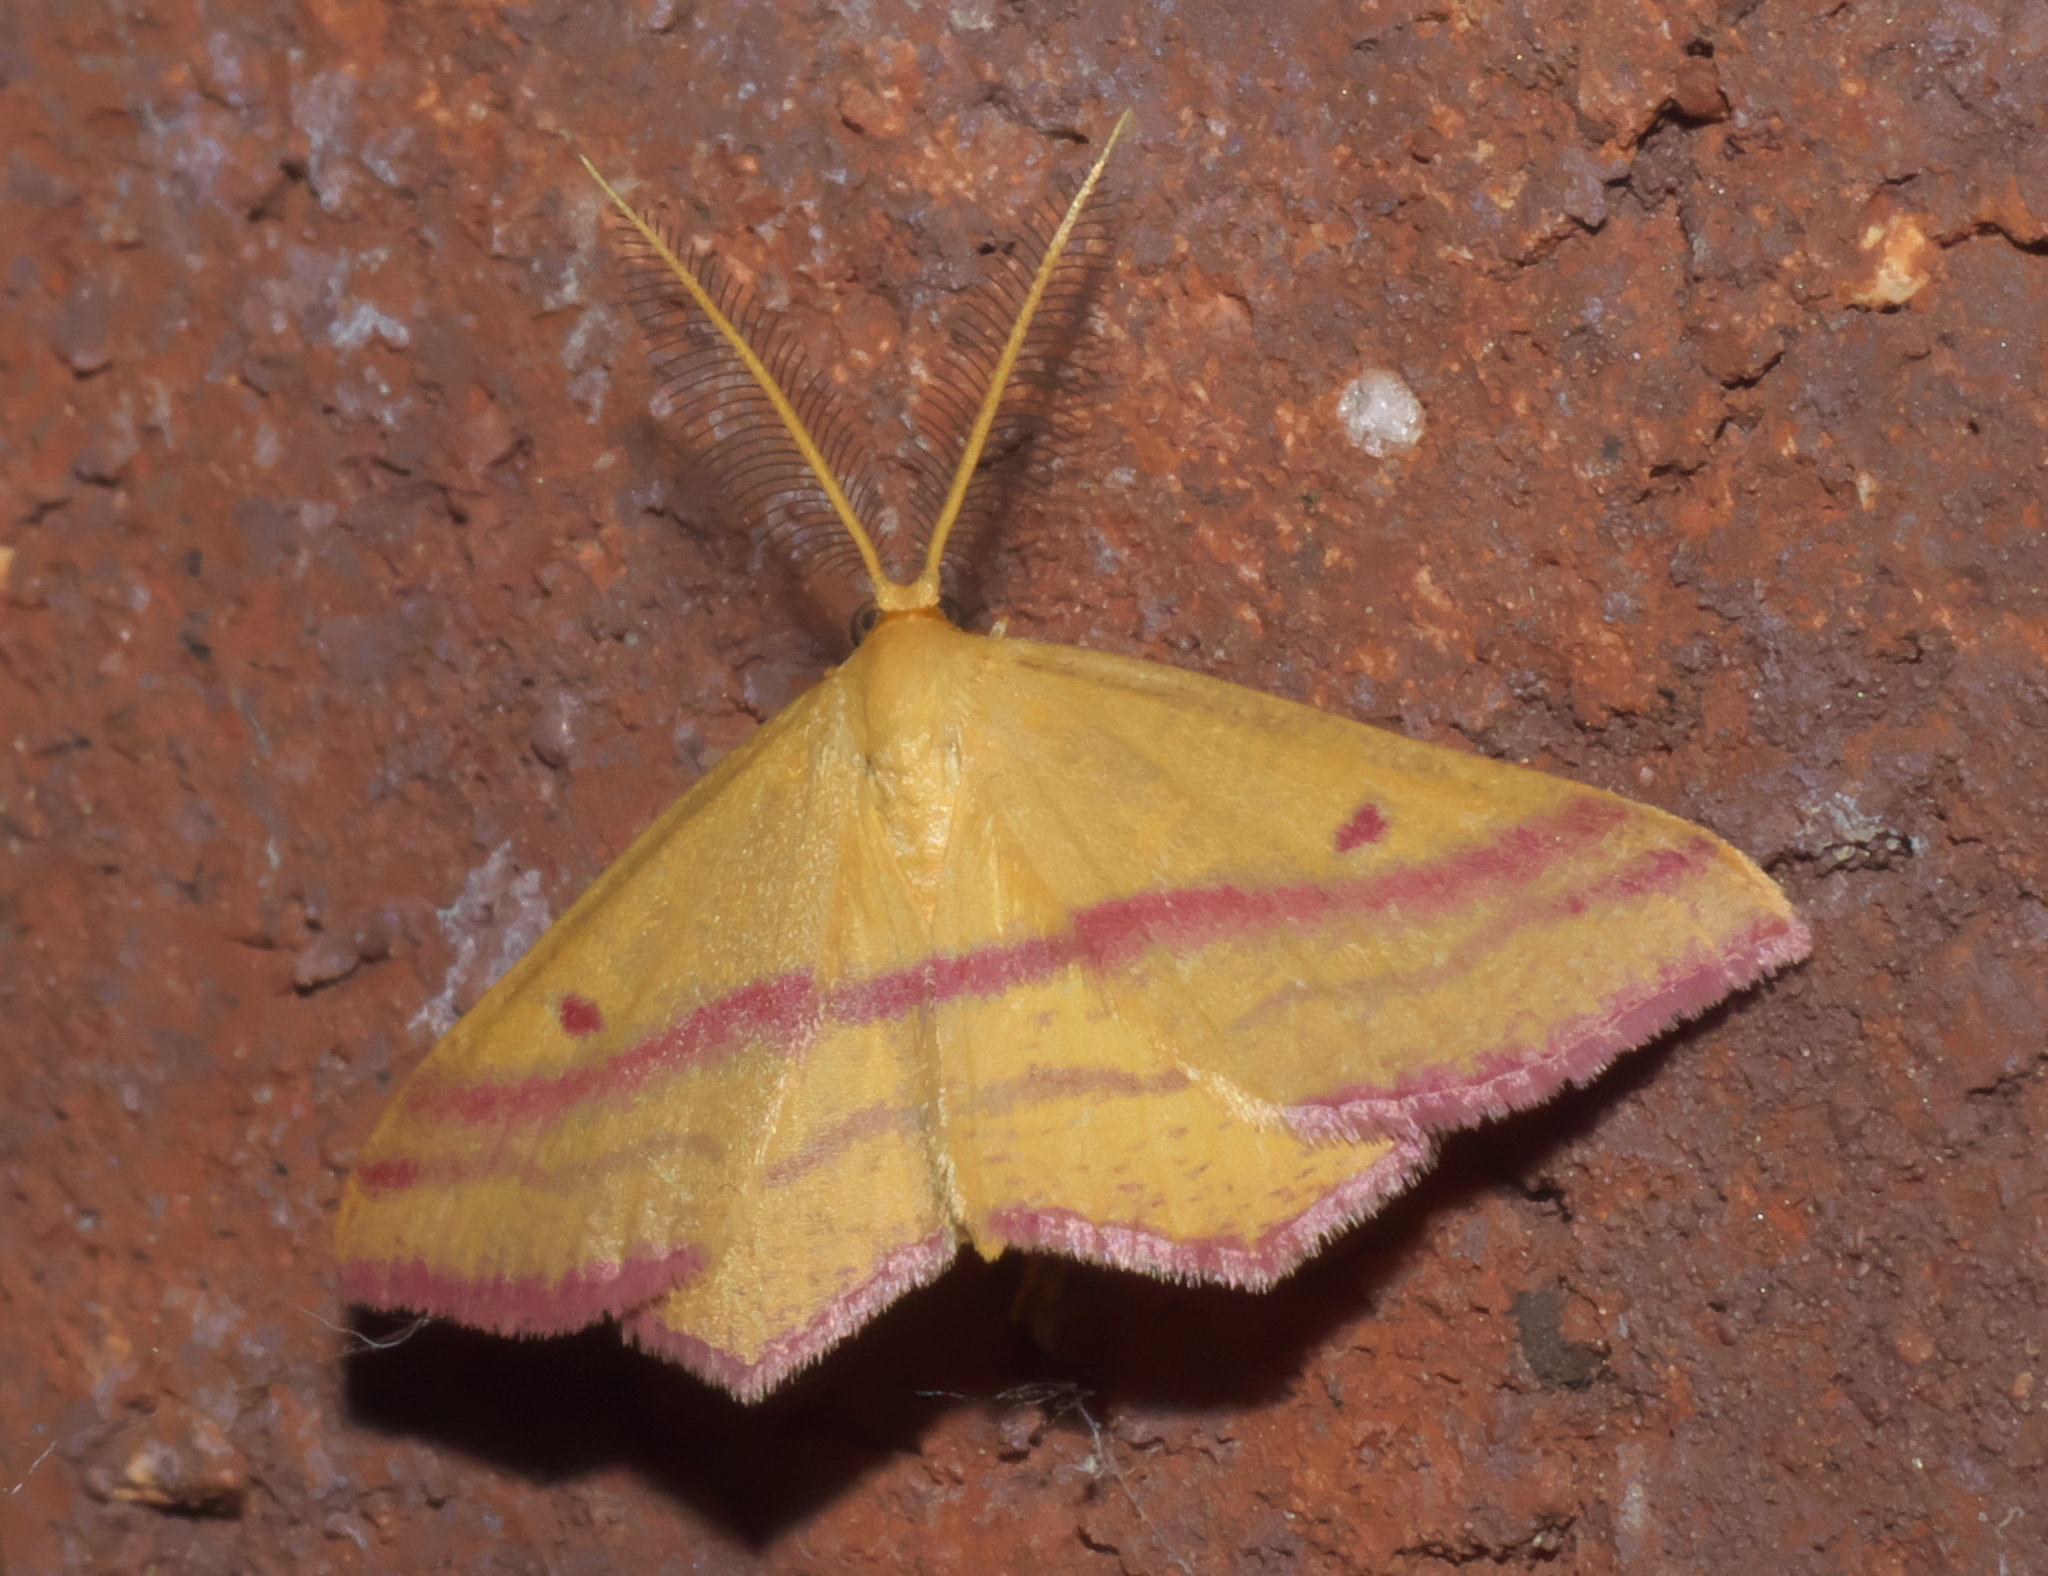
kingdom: Animalia
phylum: Arthropoda
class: Insecta
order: Lepidoptera
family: Geometridae
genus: Haematopis
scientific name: Haematopis grataria
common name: Chickweed geometer
